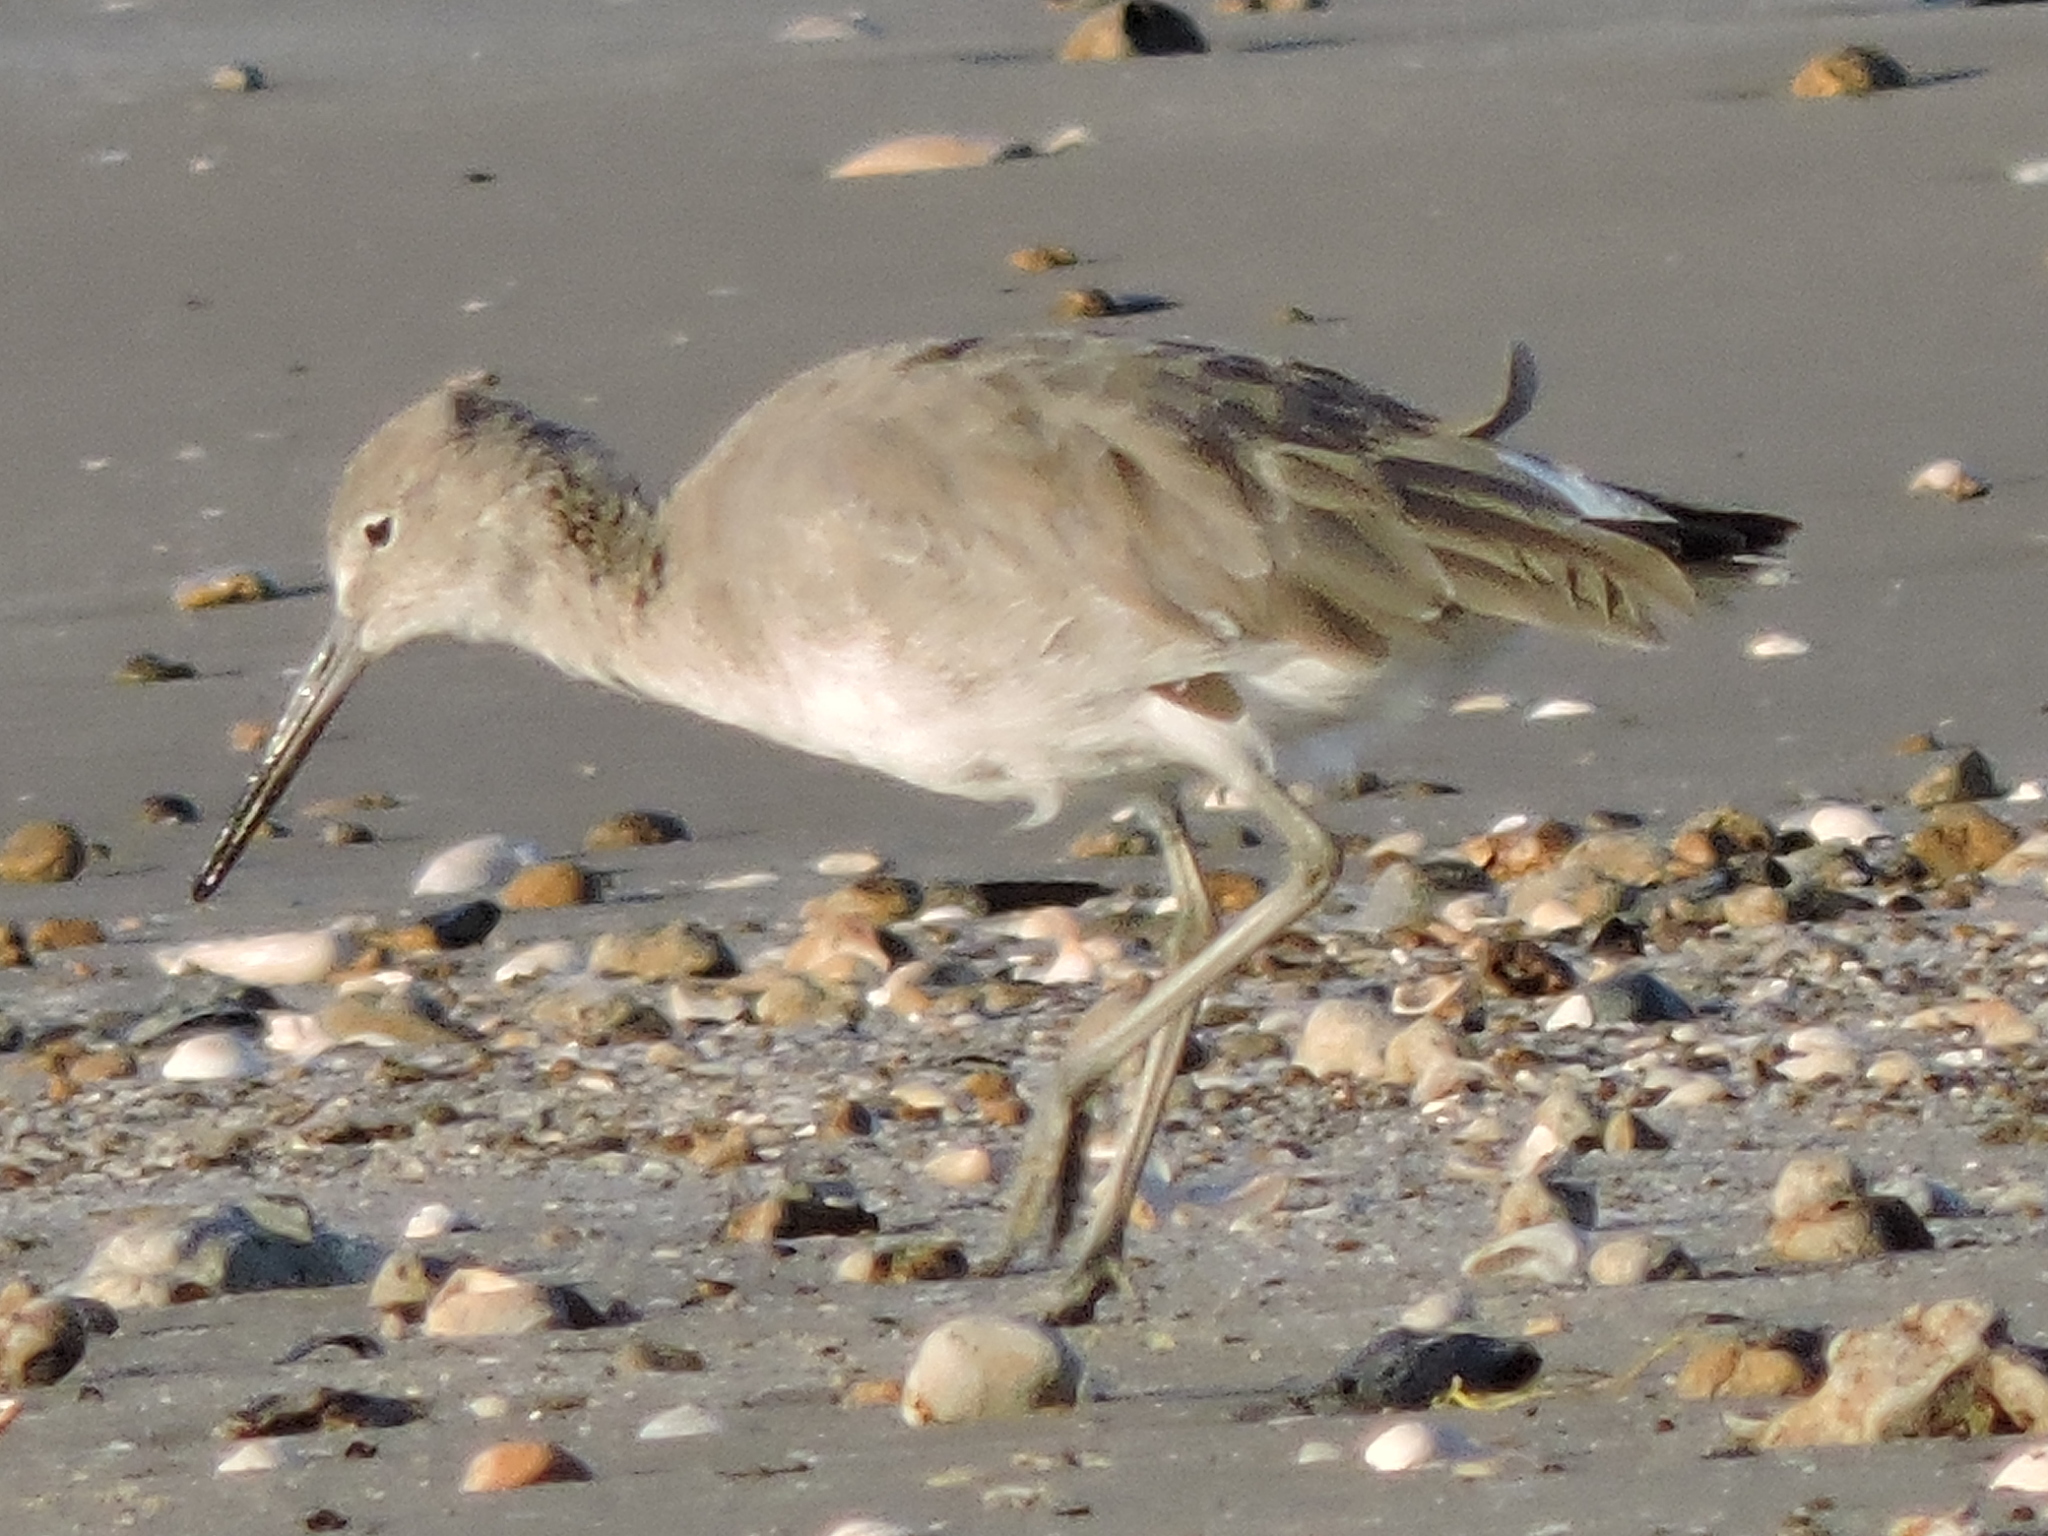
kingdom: Animalia
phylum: Chordata
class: Aves
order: Charadriiformes
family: Scolopacidae
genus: Tringa
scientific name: Tringa semipalmata
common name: Willet
